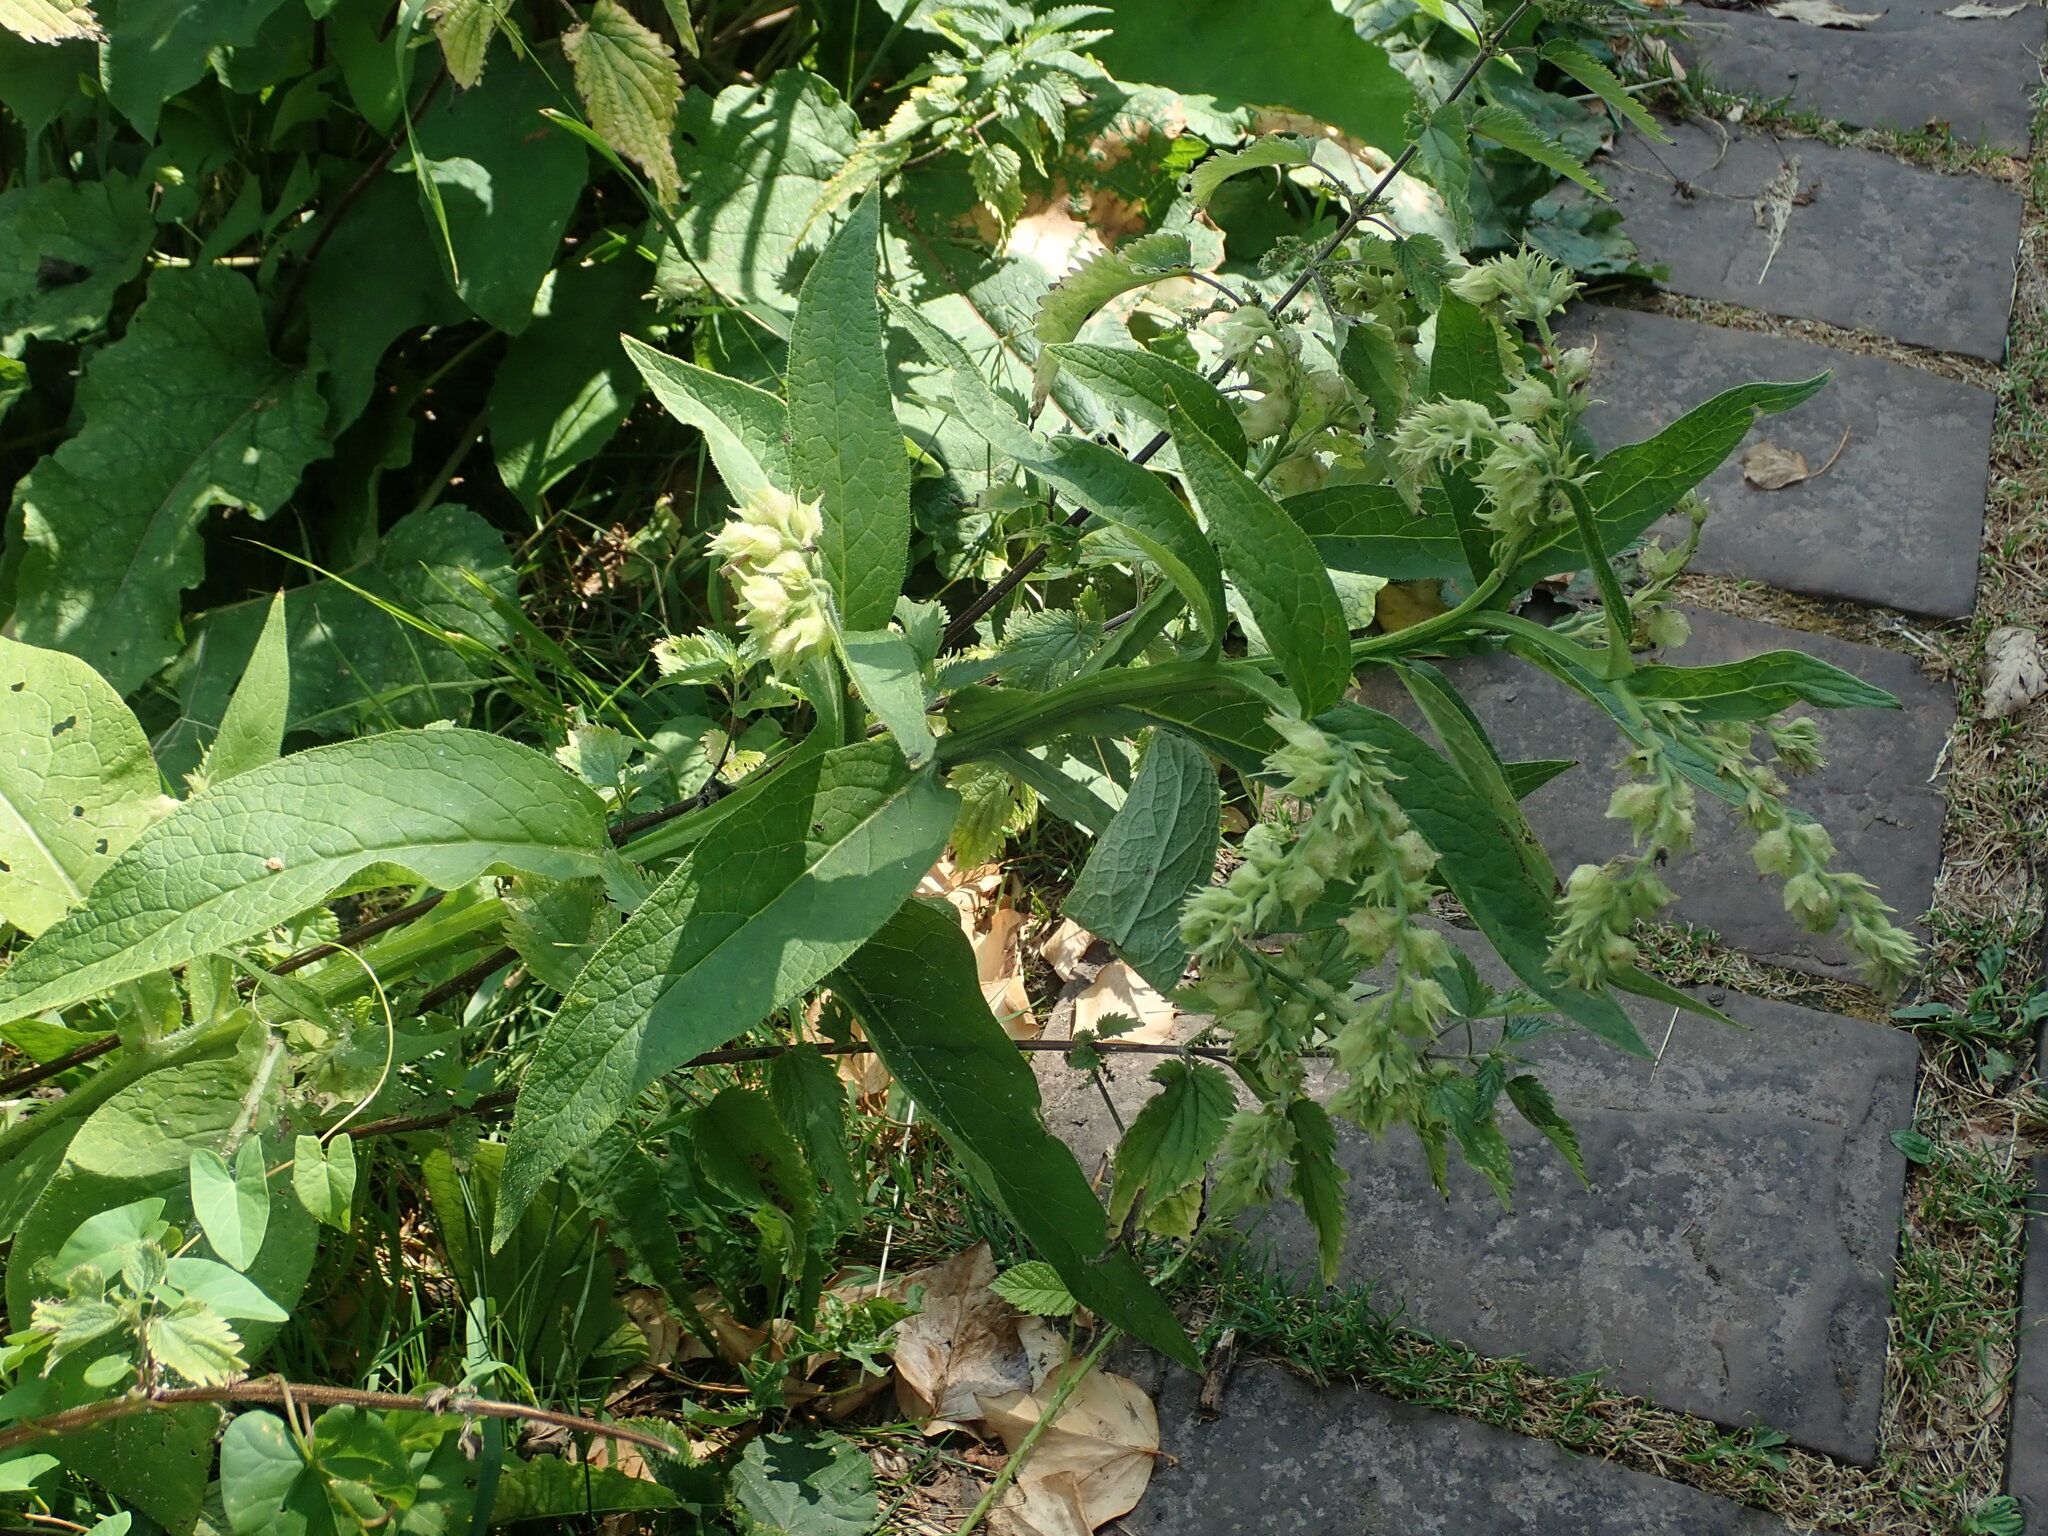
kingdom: Plantae
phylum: Tracheophyta
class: Magnoliopsida
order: Boraginales
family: Boraginaceae
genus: Symphytum
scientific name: Symphytum officinale
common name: Common comfrey
